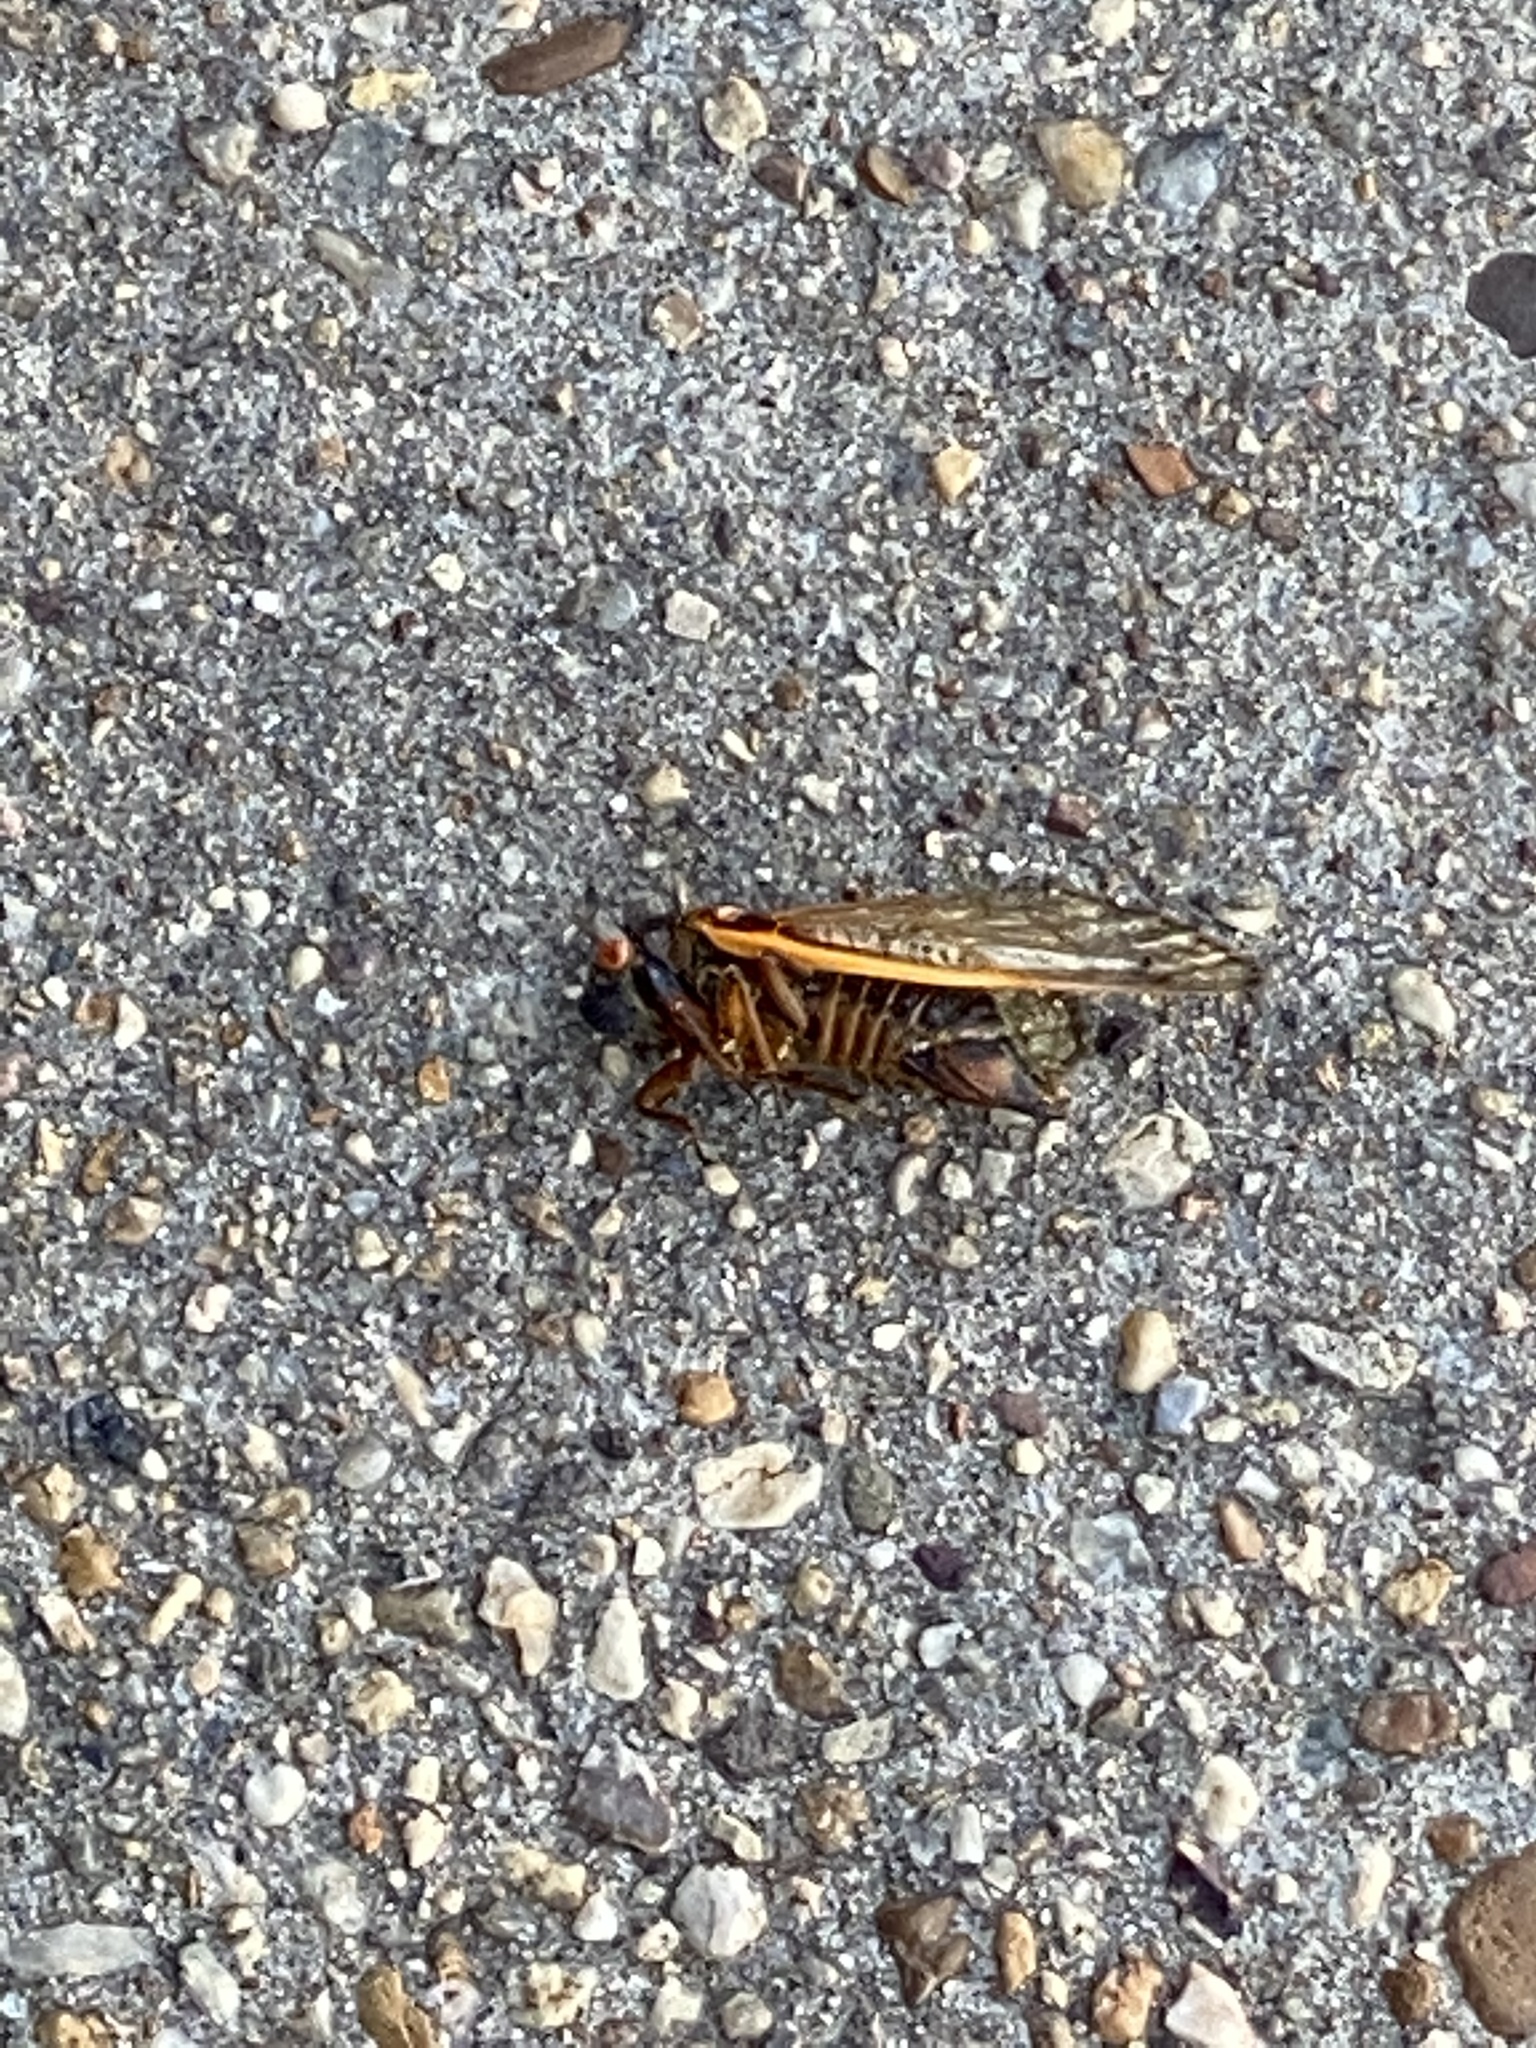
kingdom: Animalia
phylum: Arthropoda
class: Insecta
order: Hemiptera
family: Cicadidae
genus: Magicicada
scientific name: Magicicada septendecim
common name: Periodical cicada
